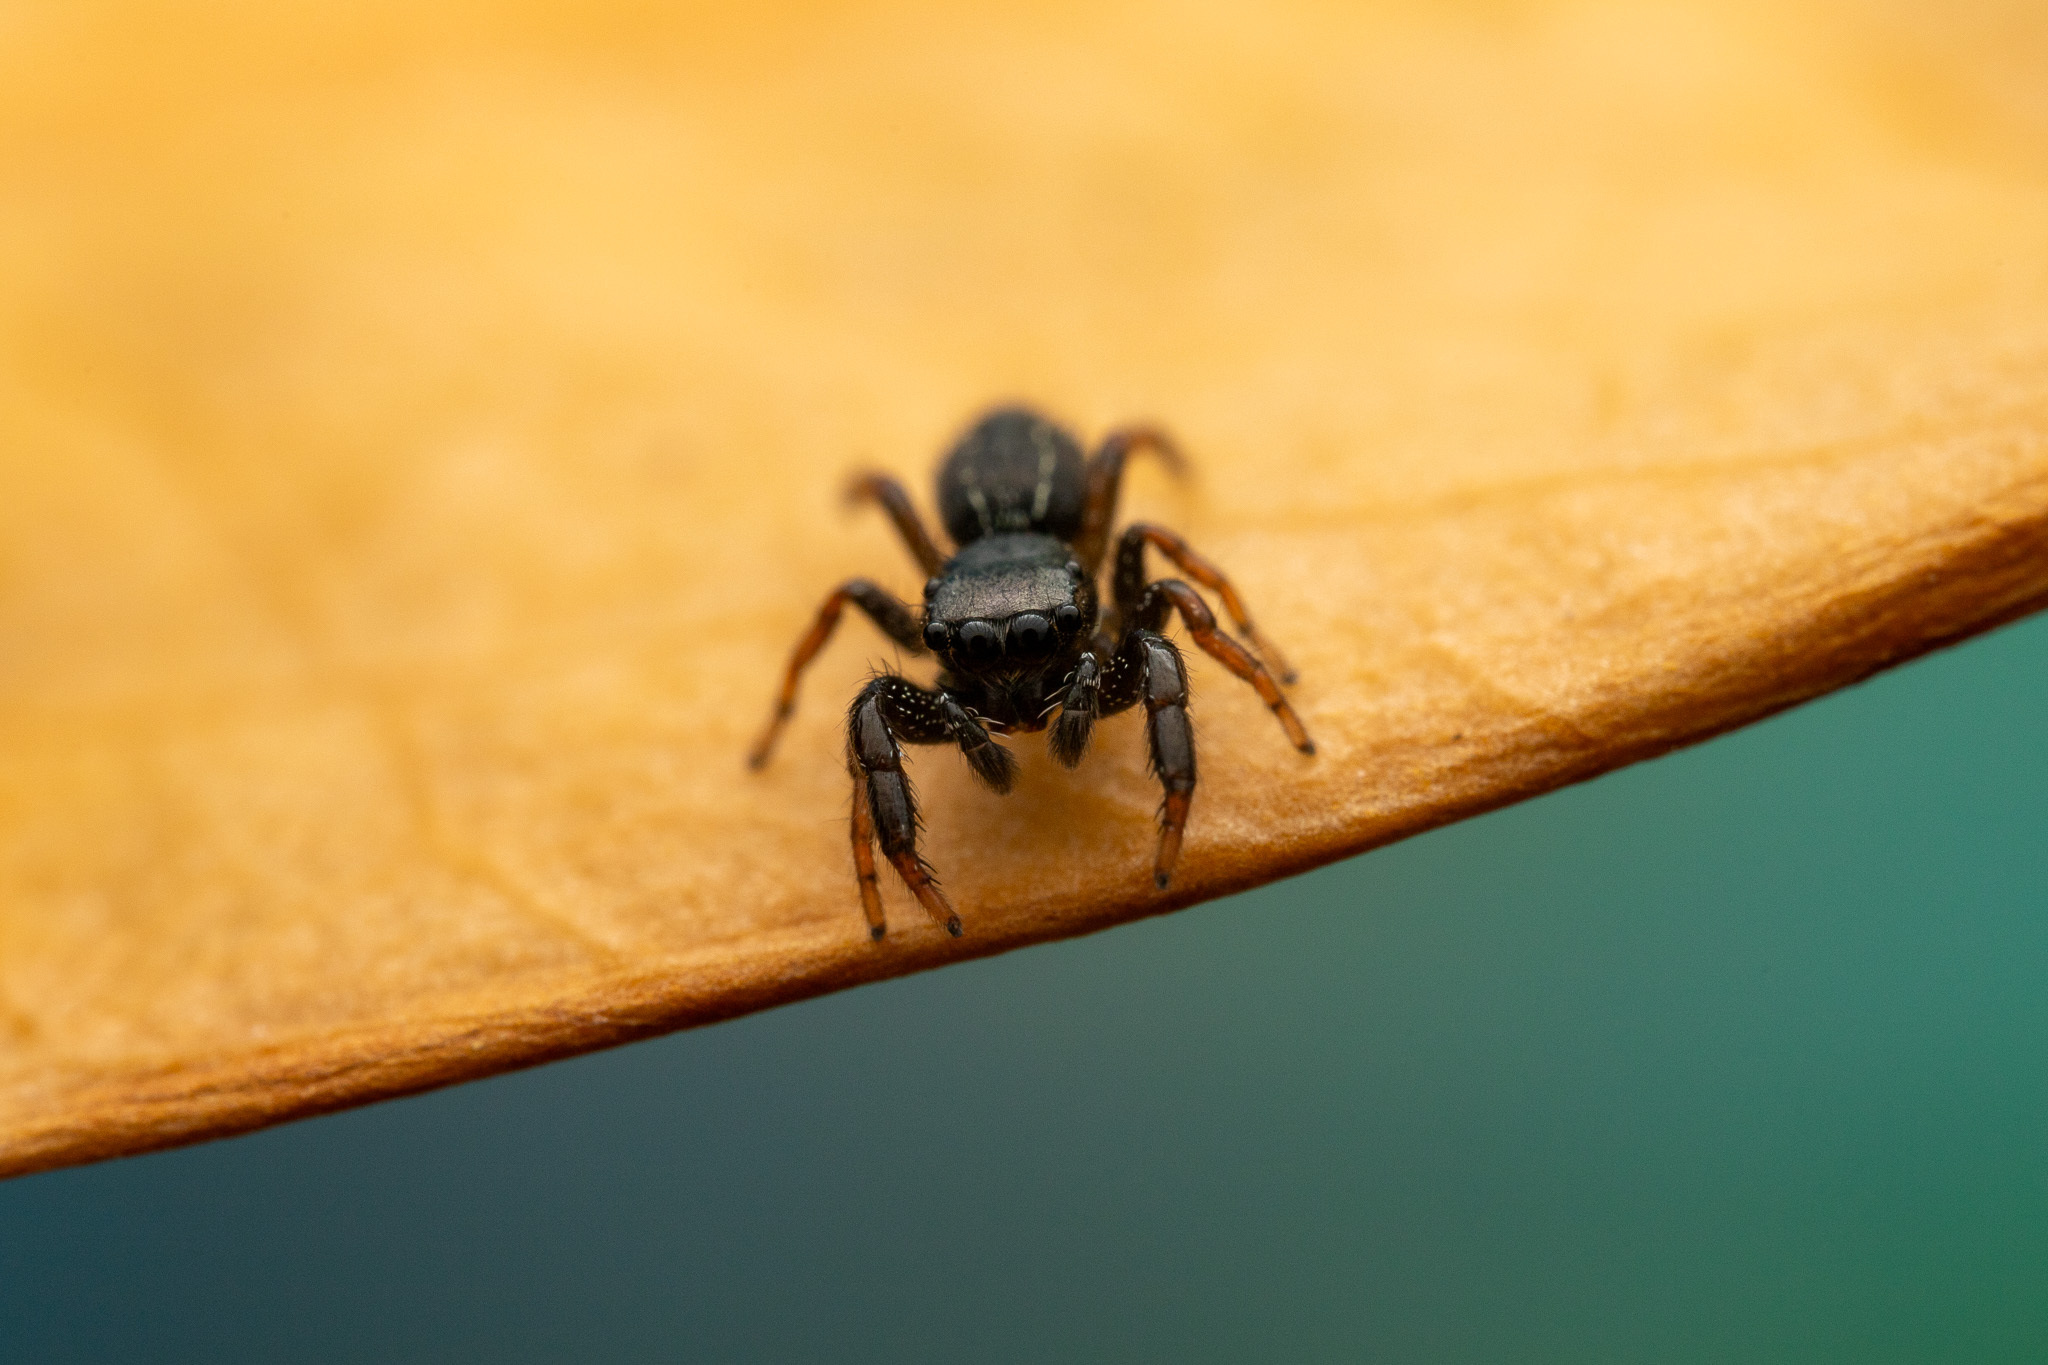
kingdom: Animalia
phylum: Arthropoda
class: Arachnida
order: Araneae
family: Salticidae
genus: Metacyrba
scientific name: Metacyrba taeniola
